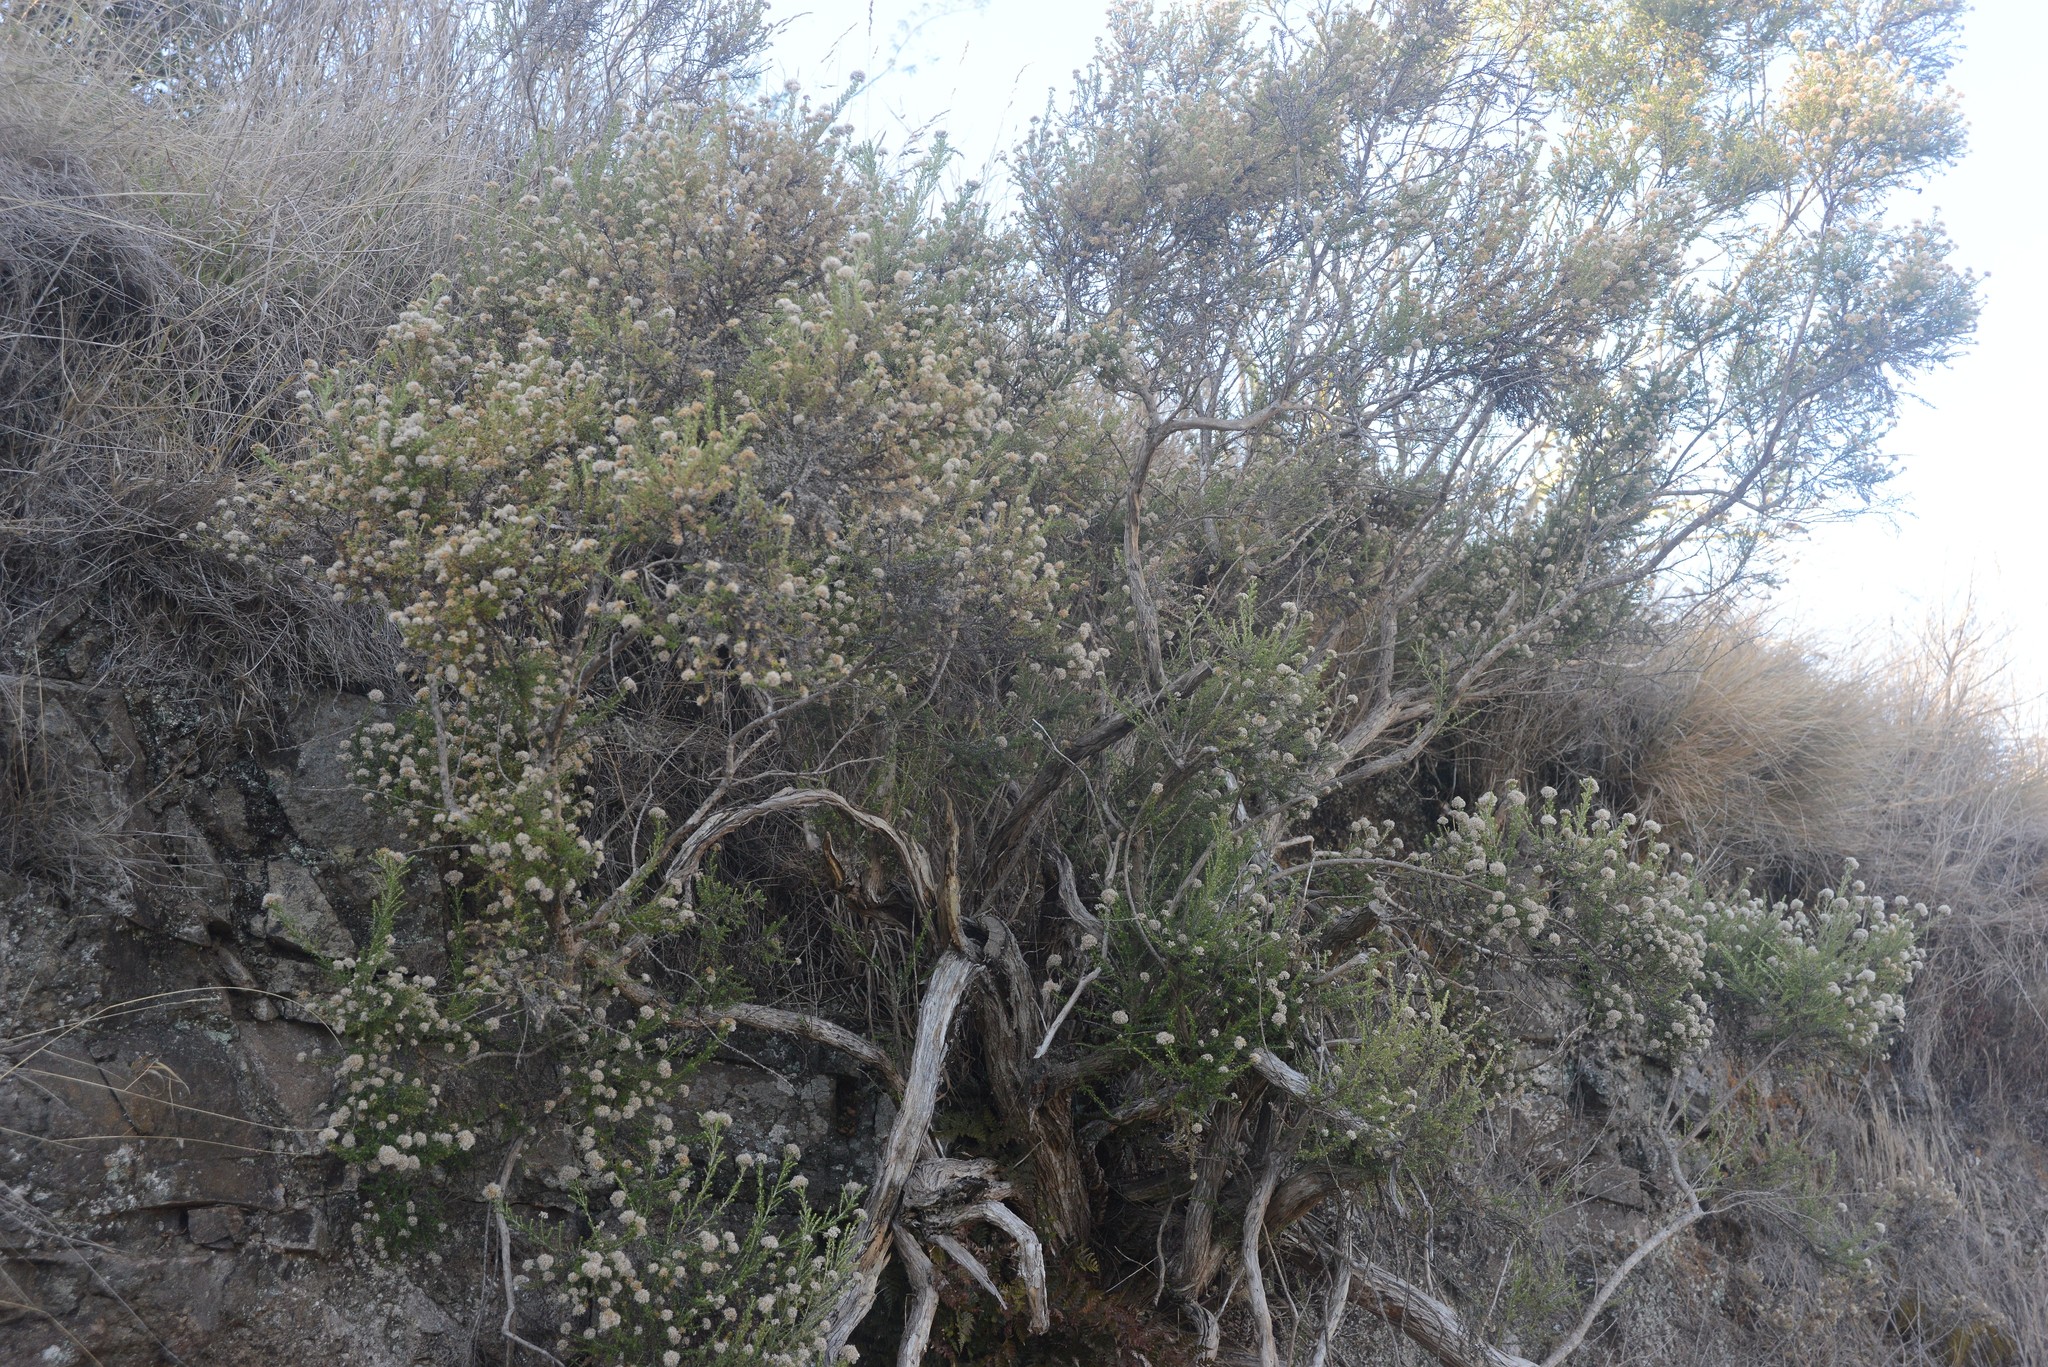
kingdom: Plantae
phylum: Tracheophyta
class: Magnoliopsida
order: Asterales
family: Asteraceae
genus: Ozothamnus
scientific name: Ozothamnus leptophyllus
